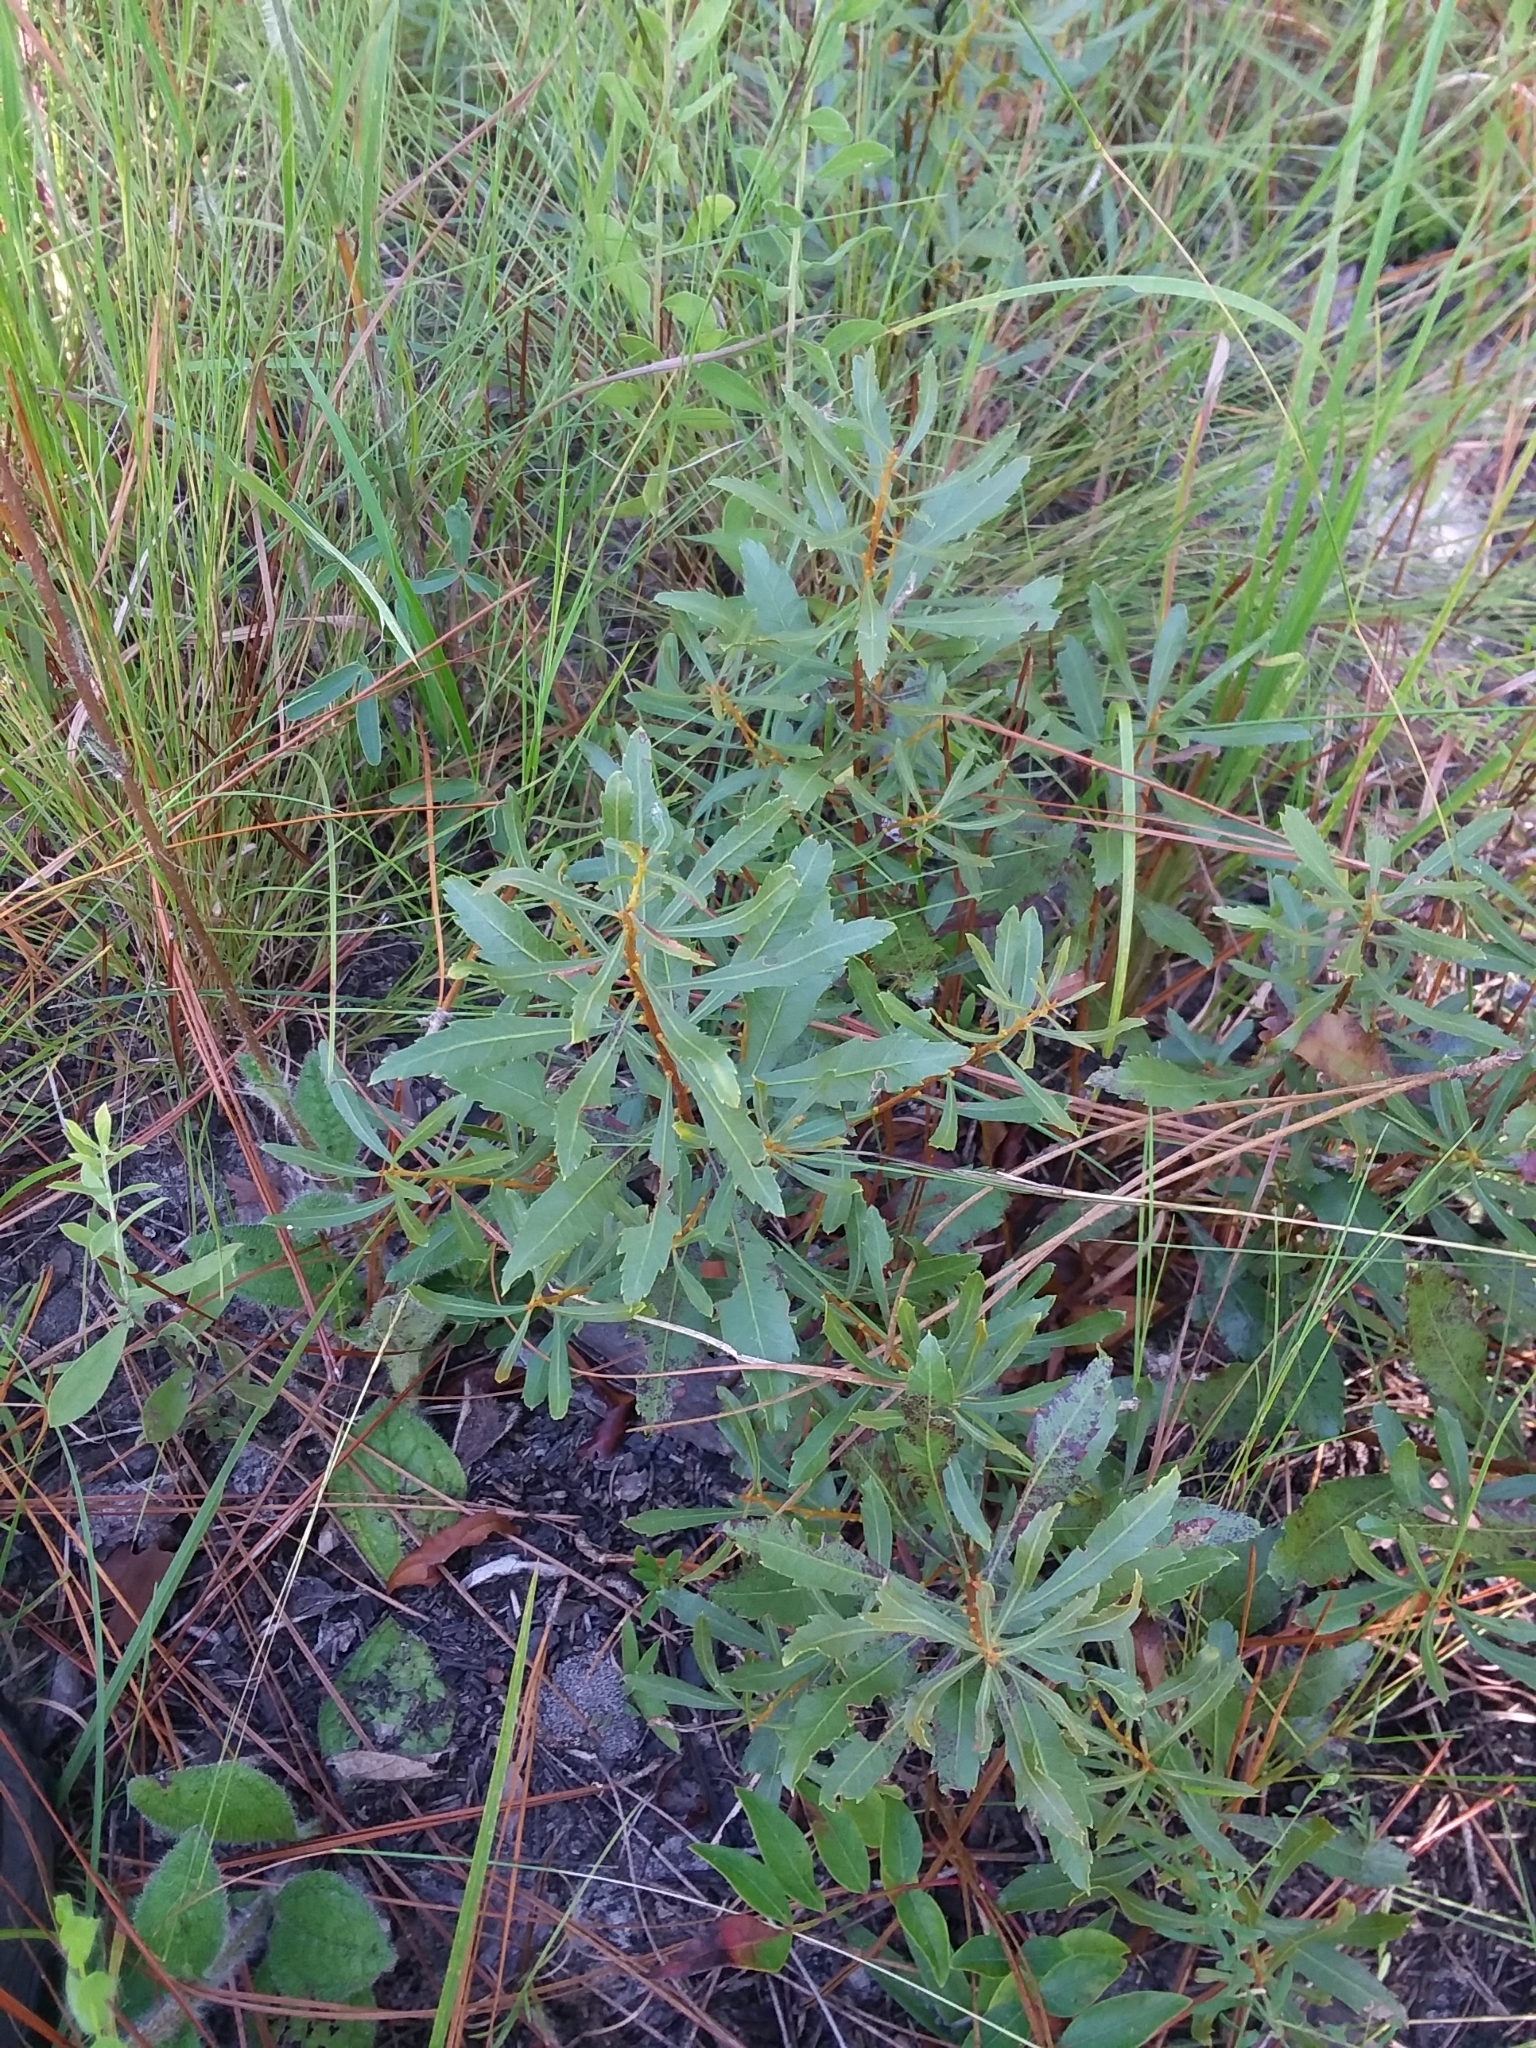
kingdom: Plantae
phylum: Tracheophyta
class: Magnoliopsida
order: Fagales
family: Myricaceae
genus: Morella
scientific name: Morella cerifera
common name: Wax myrtle
